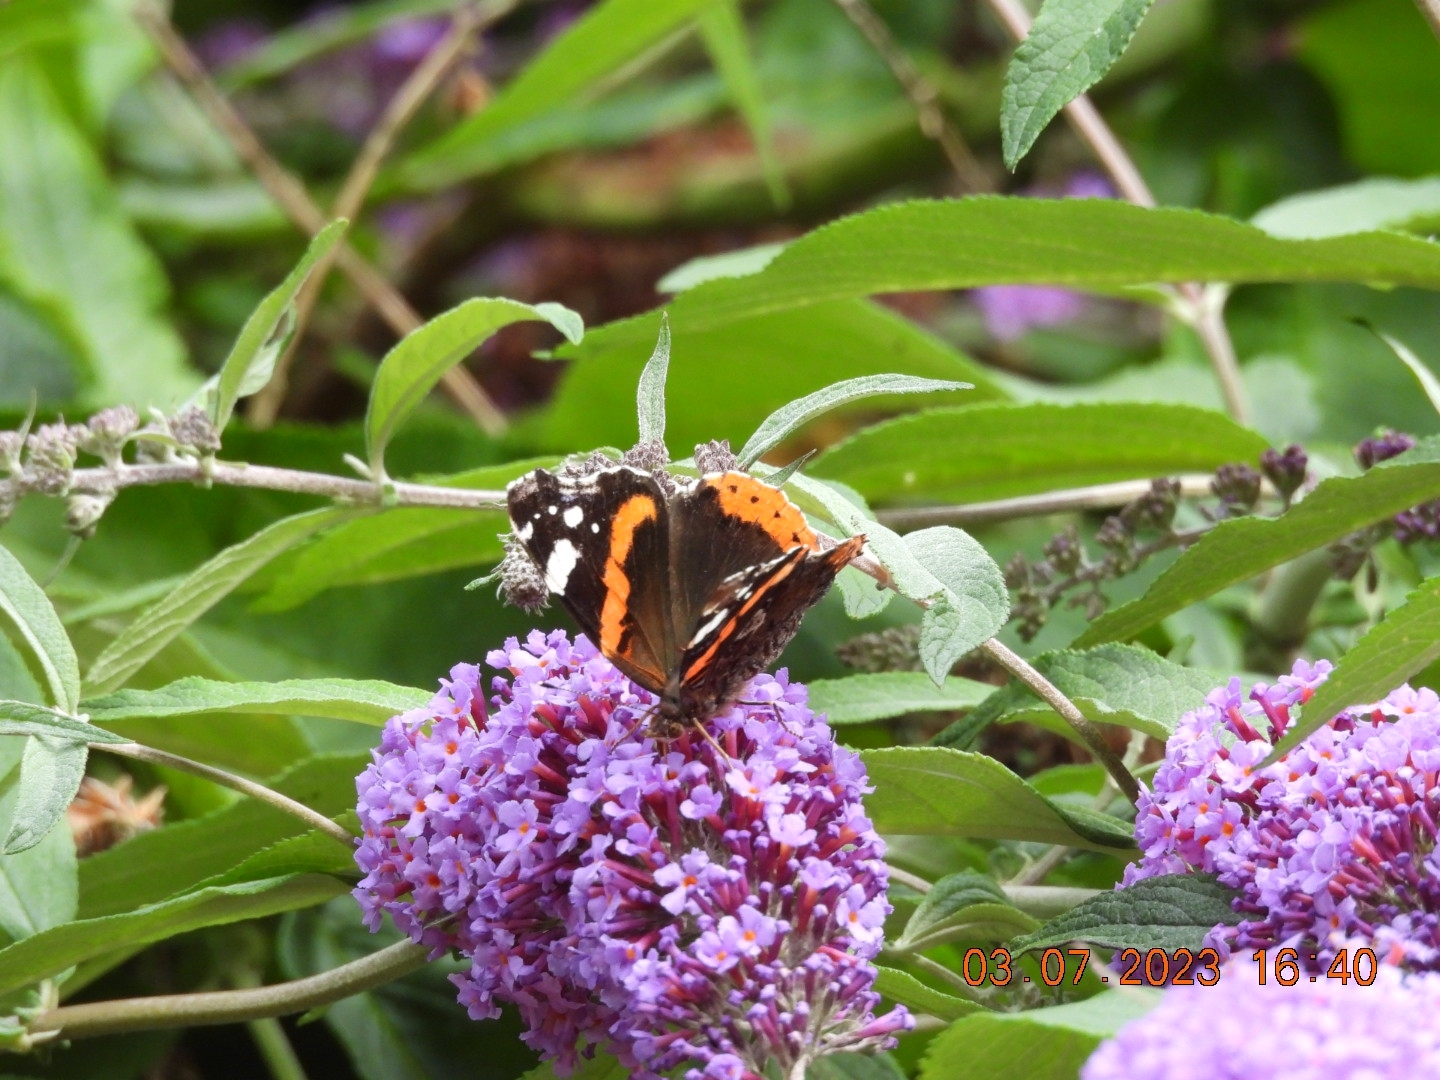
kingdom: Animalia
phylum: Arthropoda
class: Insecta
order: Lepidoptera
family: Nymphalidae
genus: Vanessa
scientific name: Vanessa atalanta
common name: Red admiral
